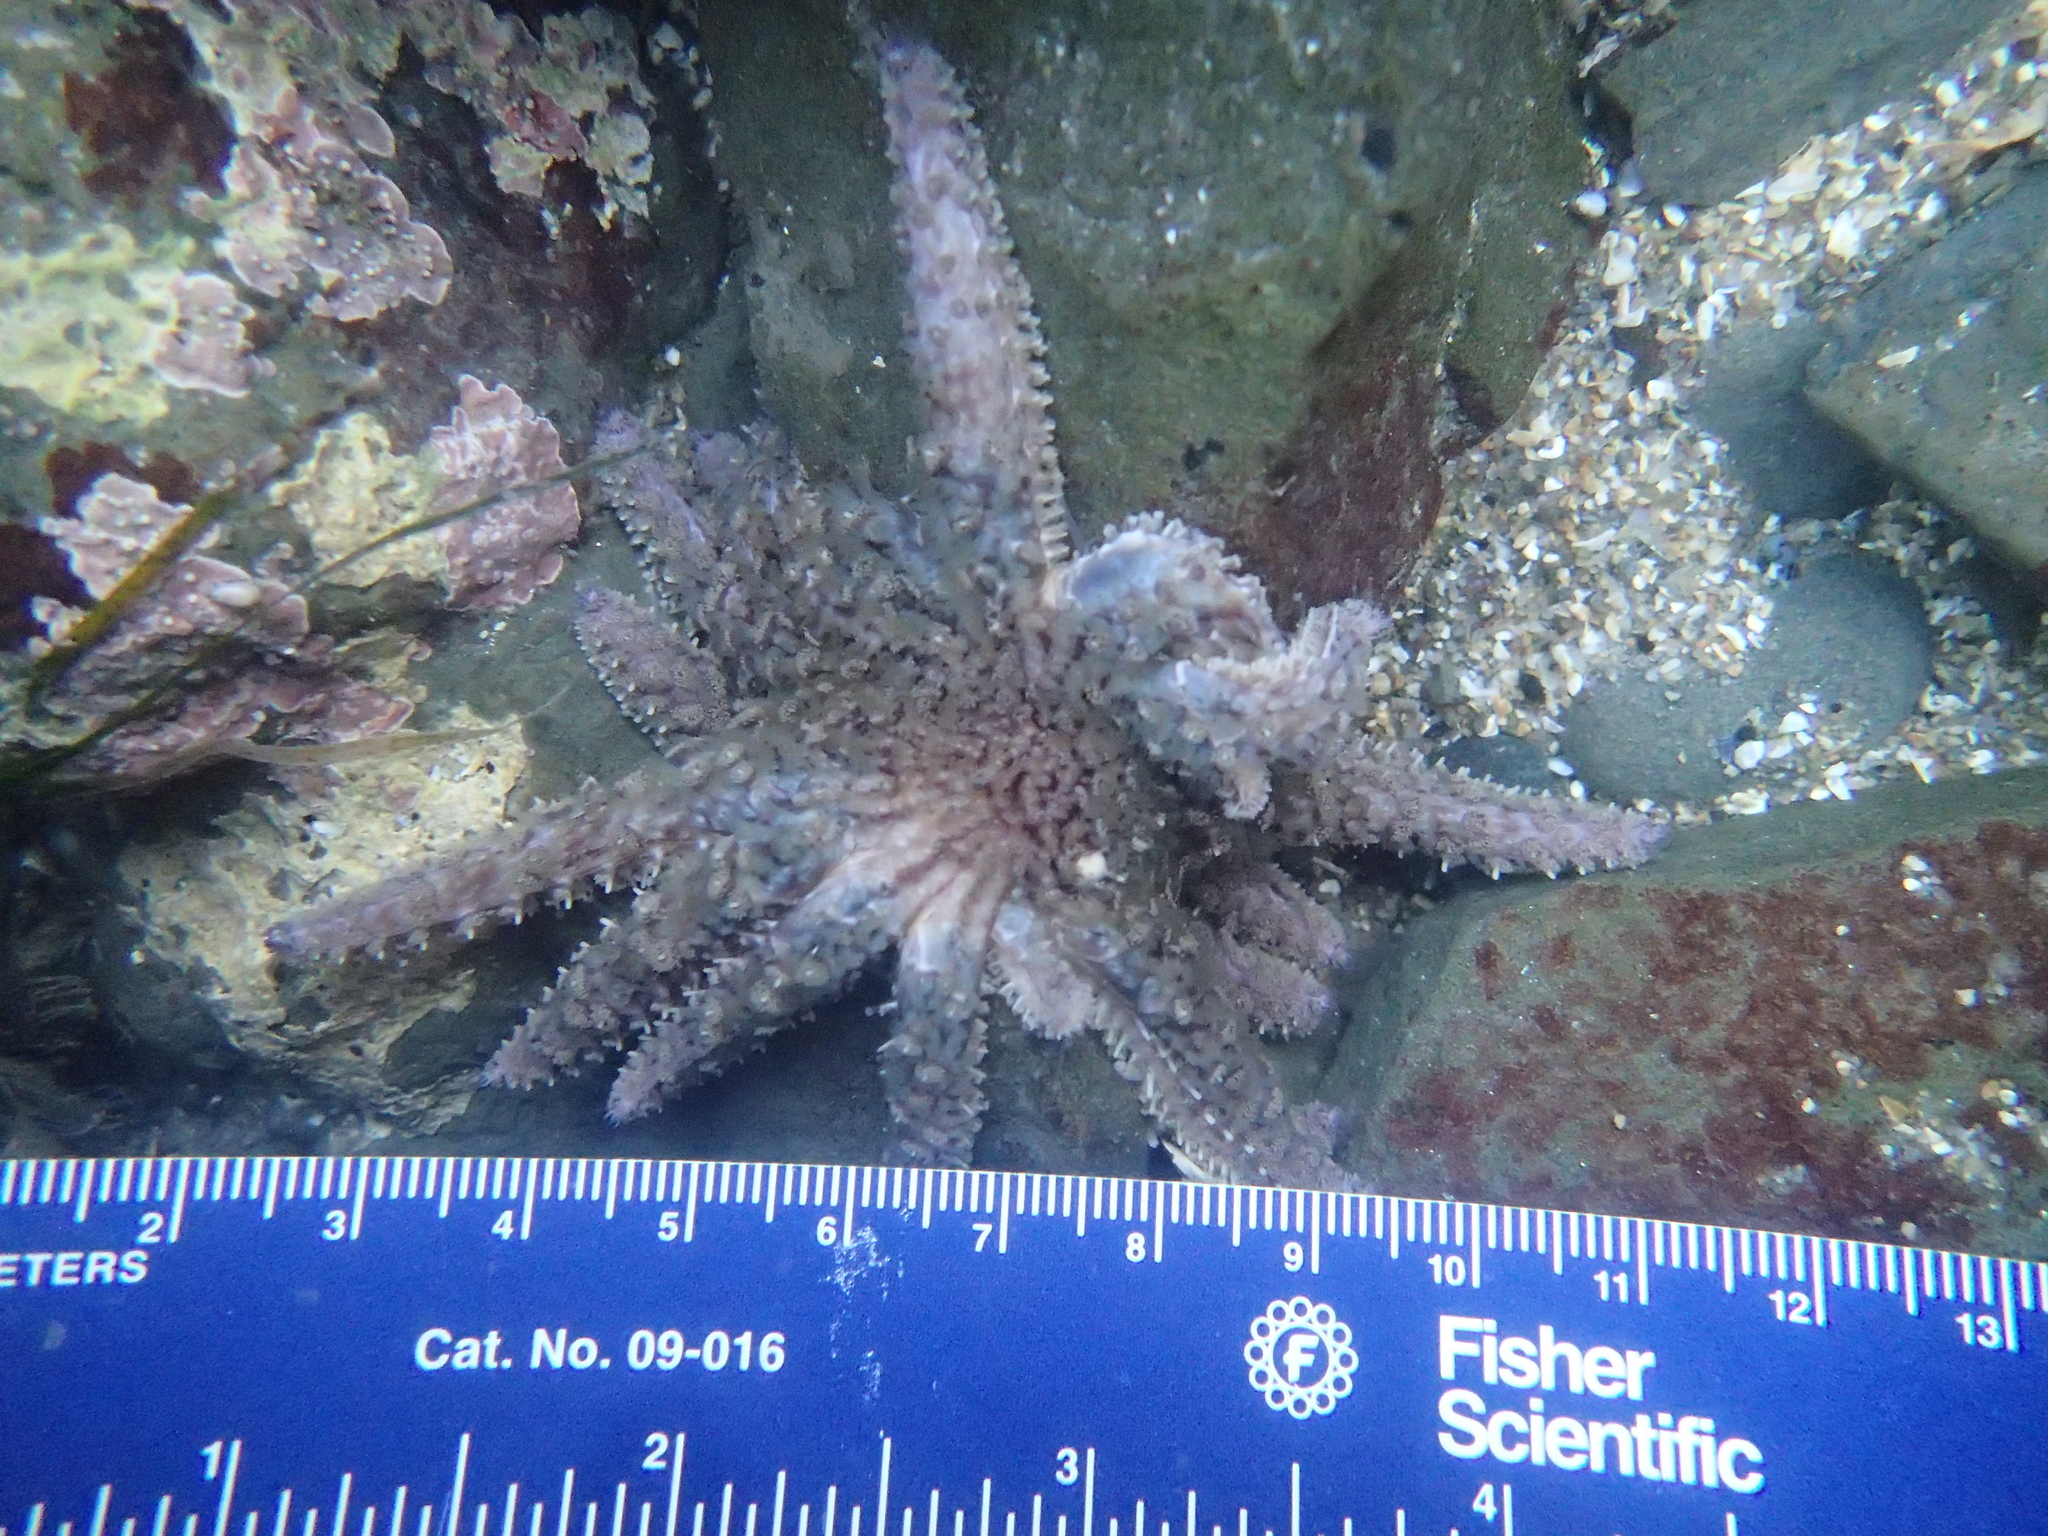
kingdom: Animalia
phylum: Echinodermata
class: Asteroidea
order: Forcipulatida
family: Asteriidae
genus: Pycnopodia
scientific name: Pycnopodia helianthoides
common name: Rag mop
